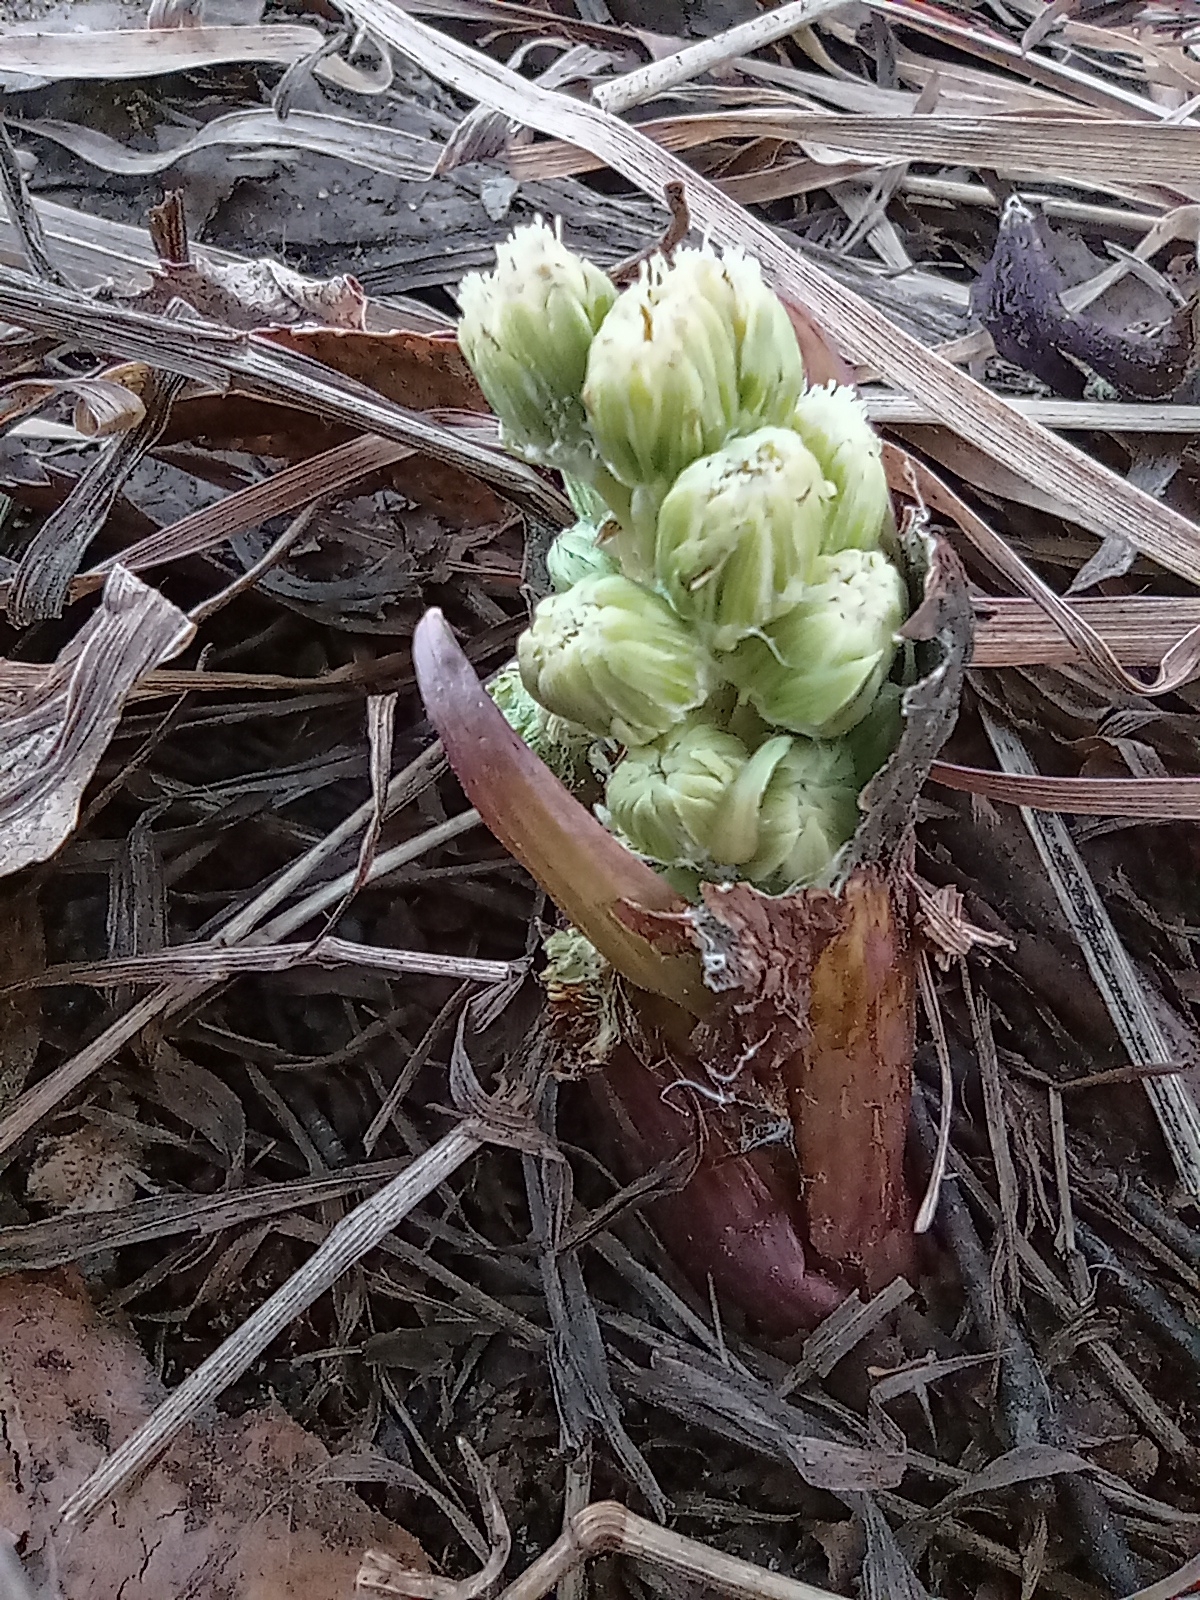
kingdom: Plantae
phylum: Tracheophyta
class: Magnoliopsida
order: Asterales
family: Asteraceae
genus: Petasites
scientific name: Petasites spurius
